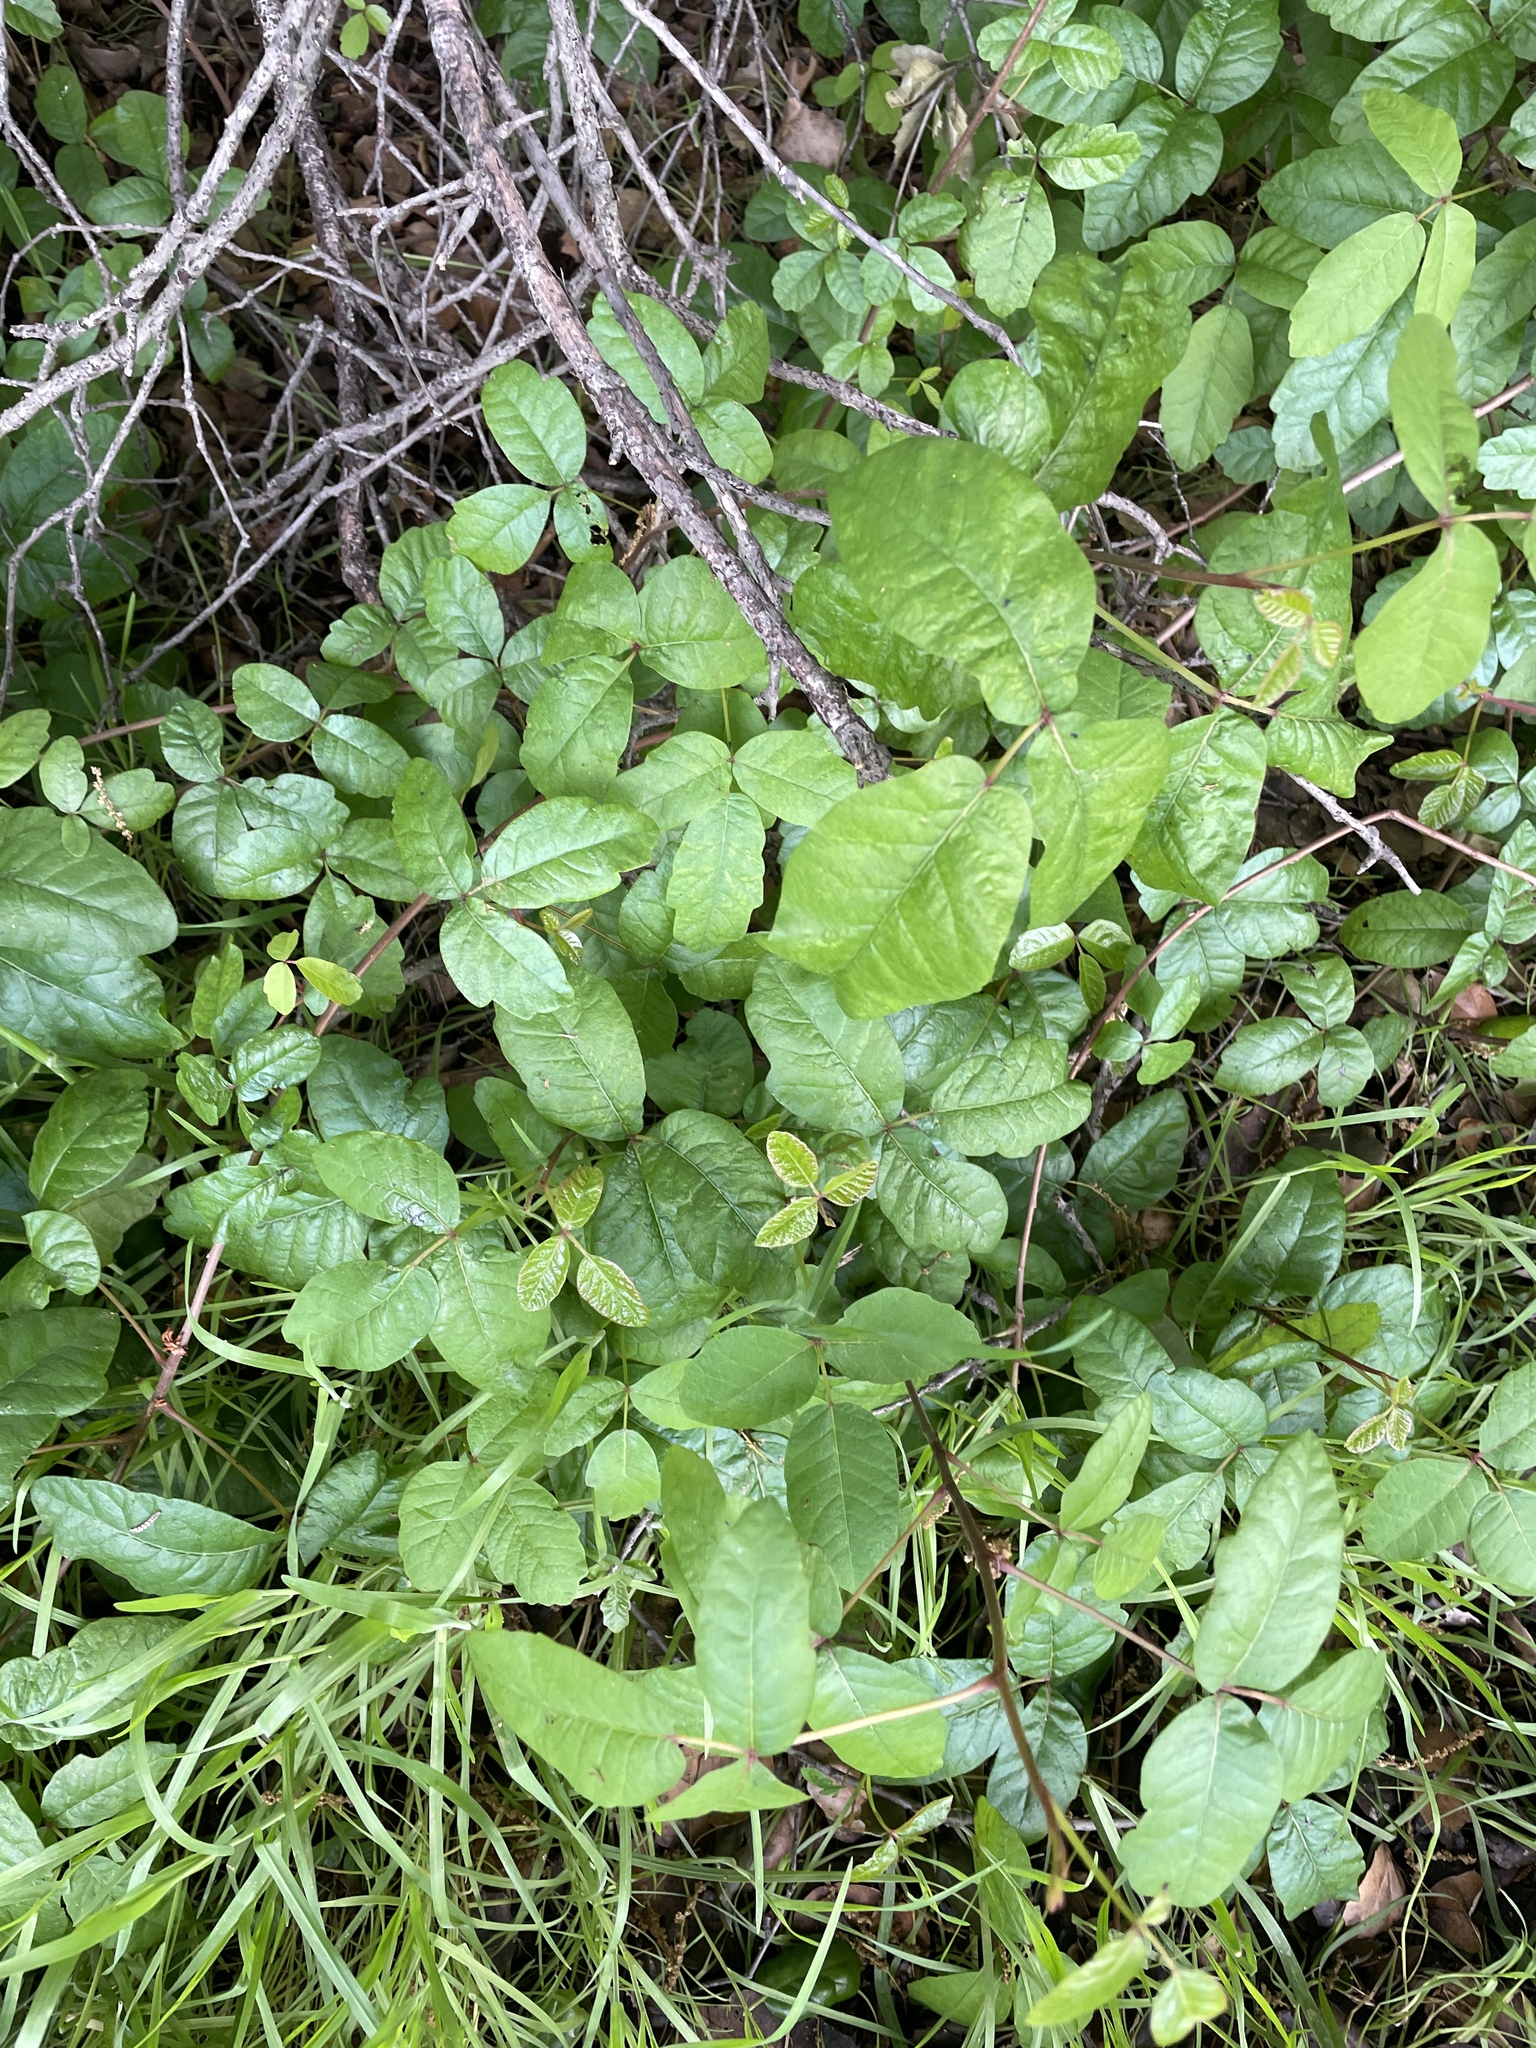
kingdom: Plantae
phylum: Tracheophyta
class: Magnoliopsida
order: Sapindales
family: Anacardiaceae
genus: Toxicodendron
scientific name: Toxicodendron diversilobum
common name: Pacific poison-oak
